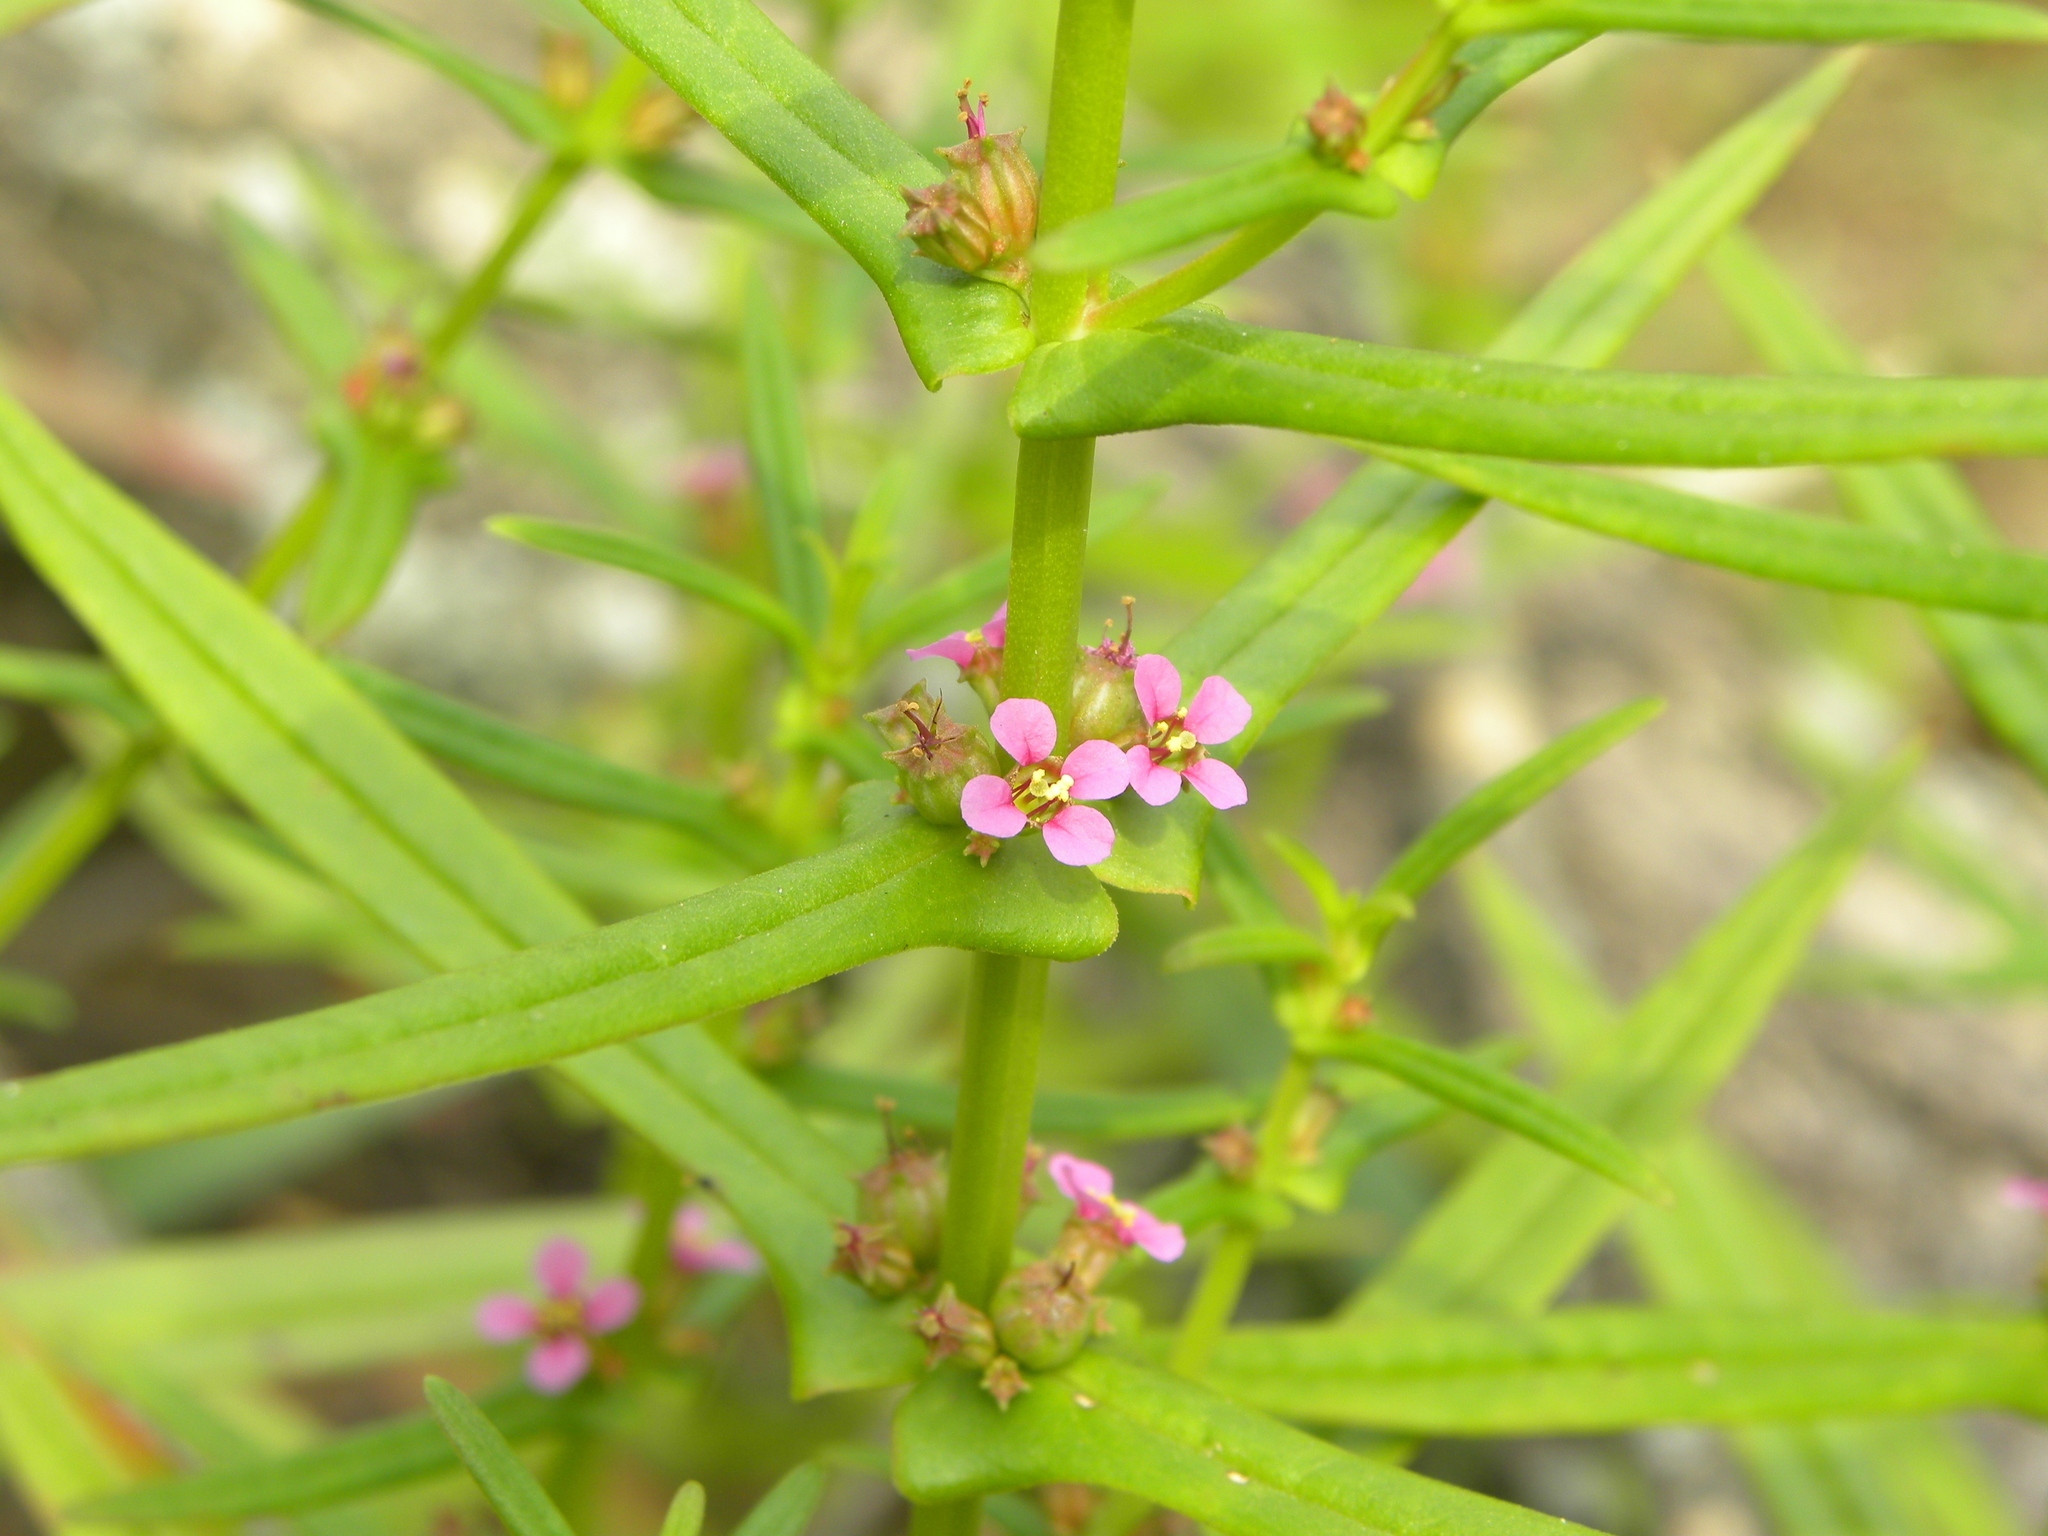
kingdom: Plantae
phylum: Tracheophyta
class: Magnoliopsida
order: Myrtales
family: Lythraceae
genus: Ammannia
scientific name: Ammannia coccinea
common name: Valley redstem
